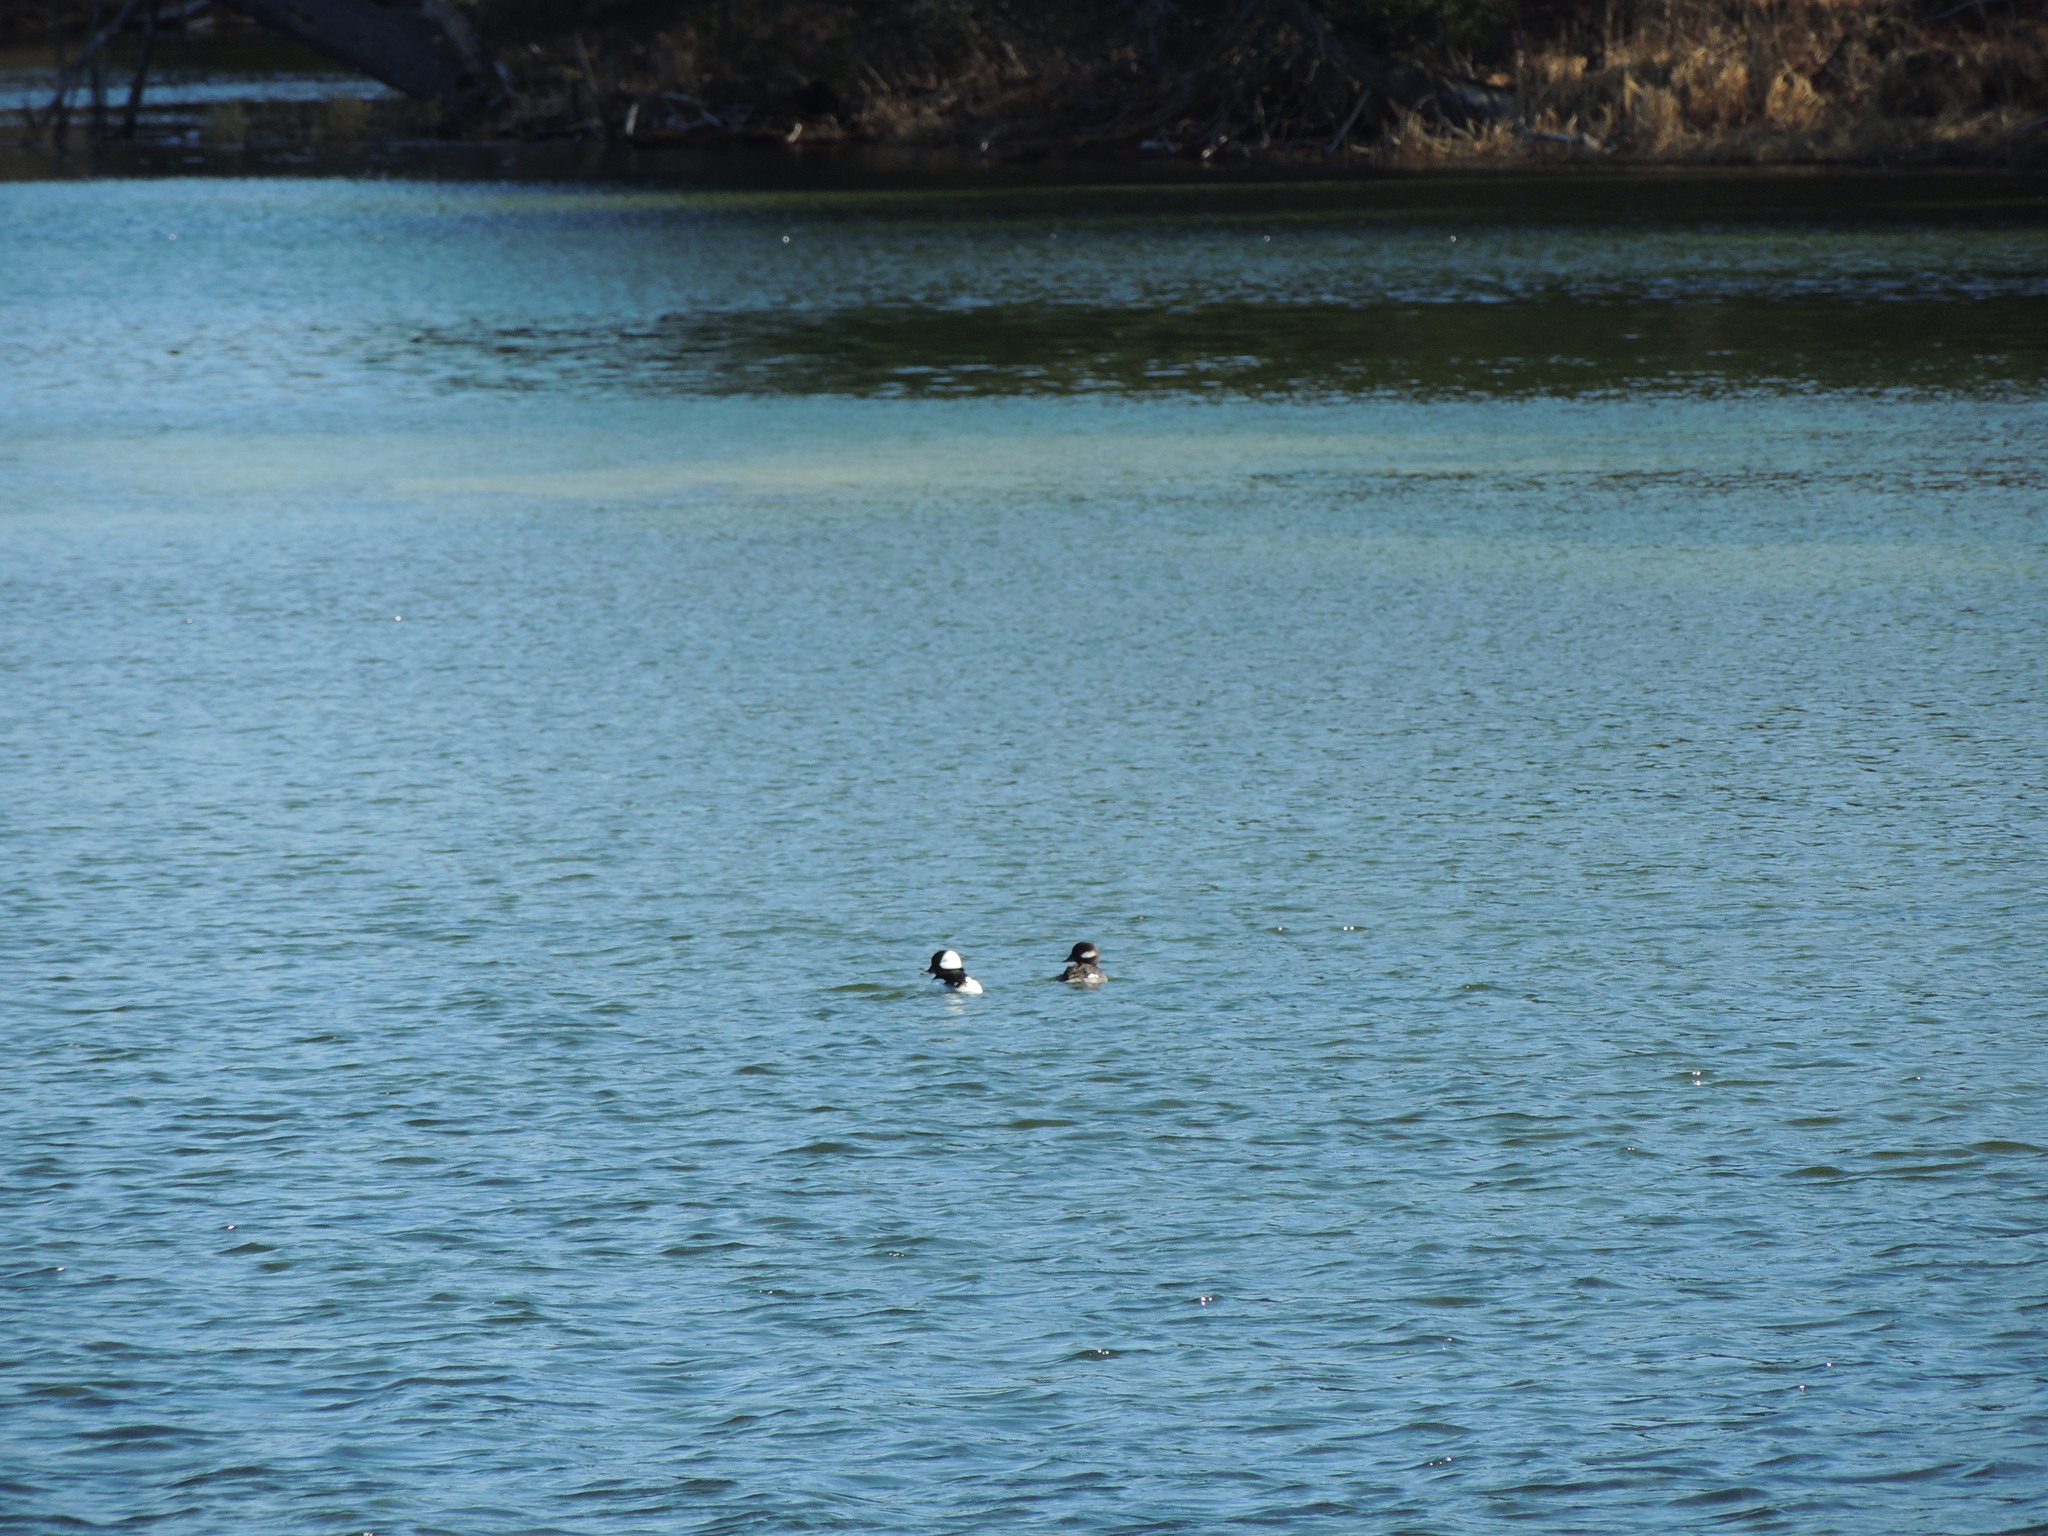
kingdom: Animalia
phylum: Chordata
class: Aves
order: Anseriformes
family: Anatidae
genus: Bucephala
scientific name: Bucephala albeola
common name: Bufflehead
